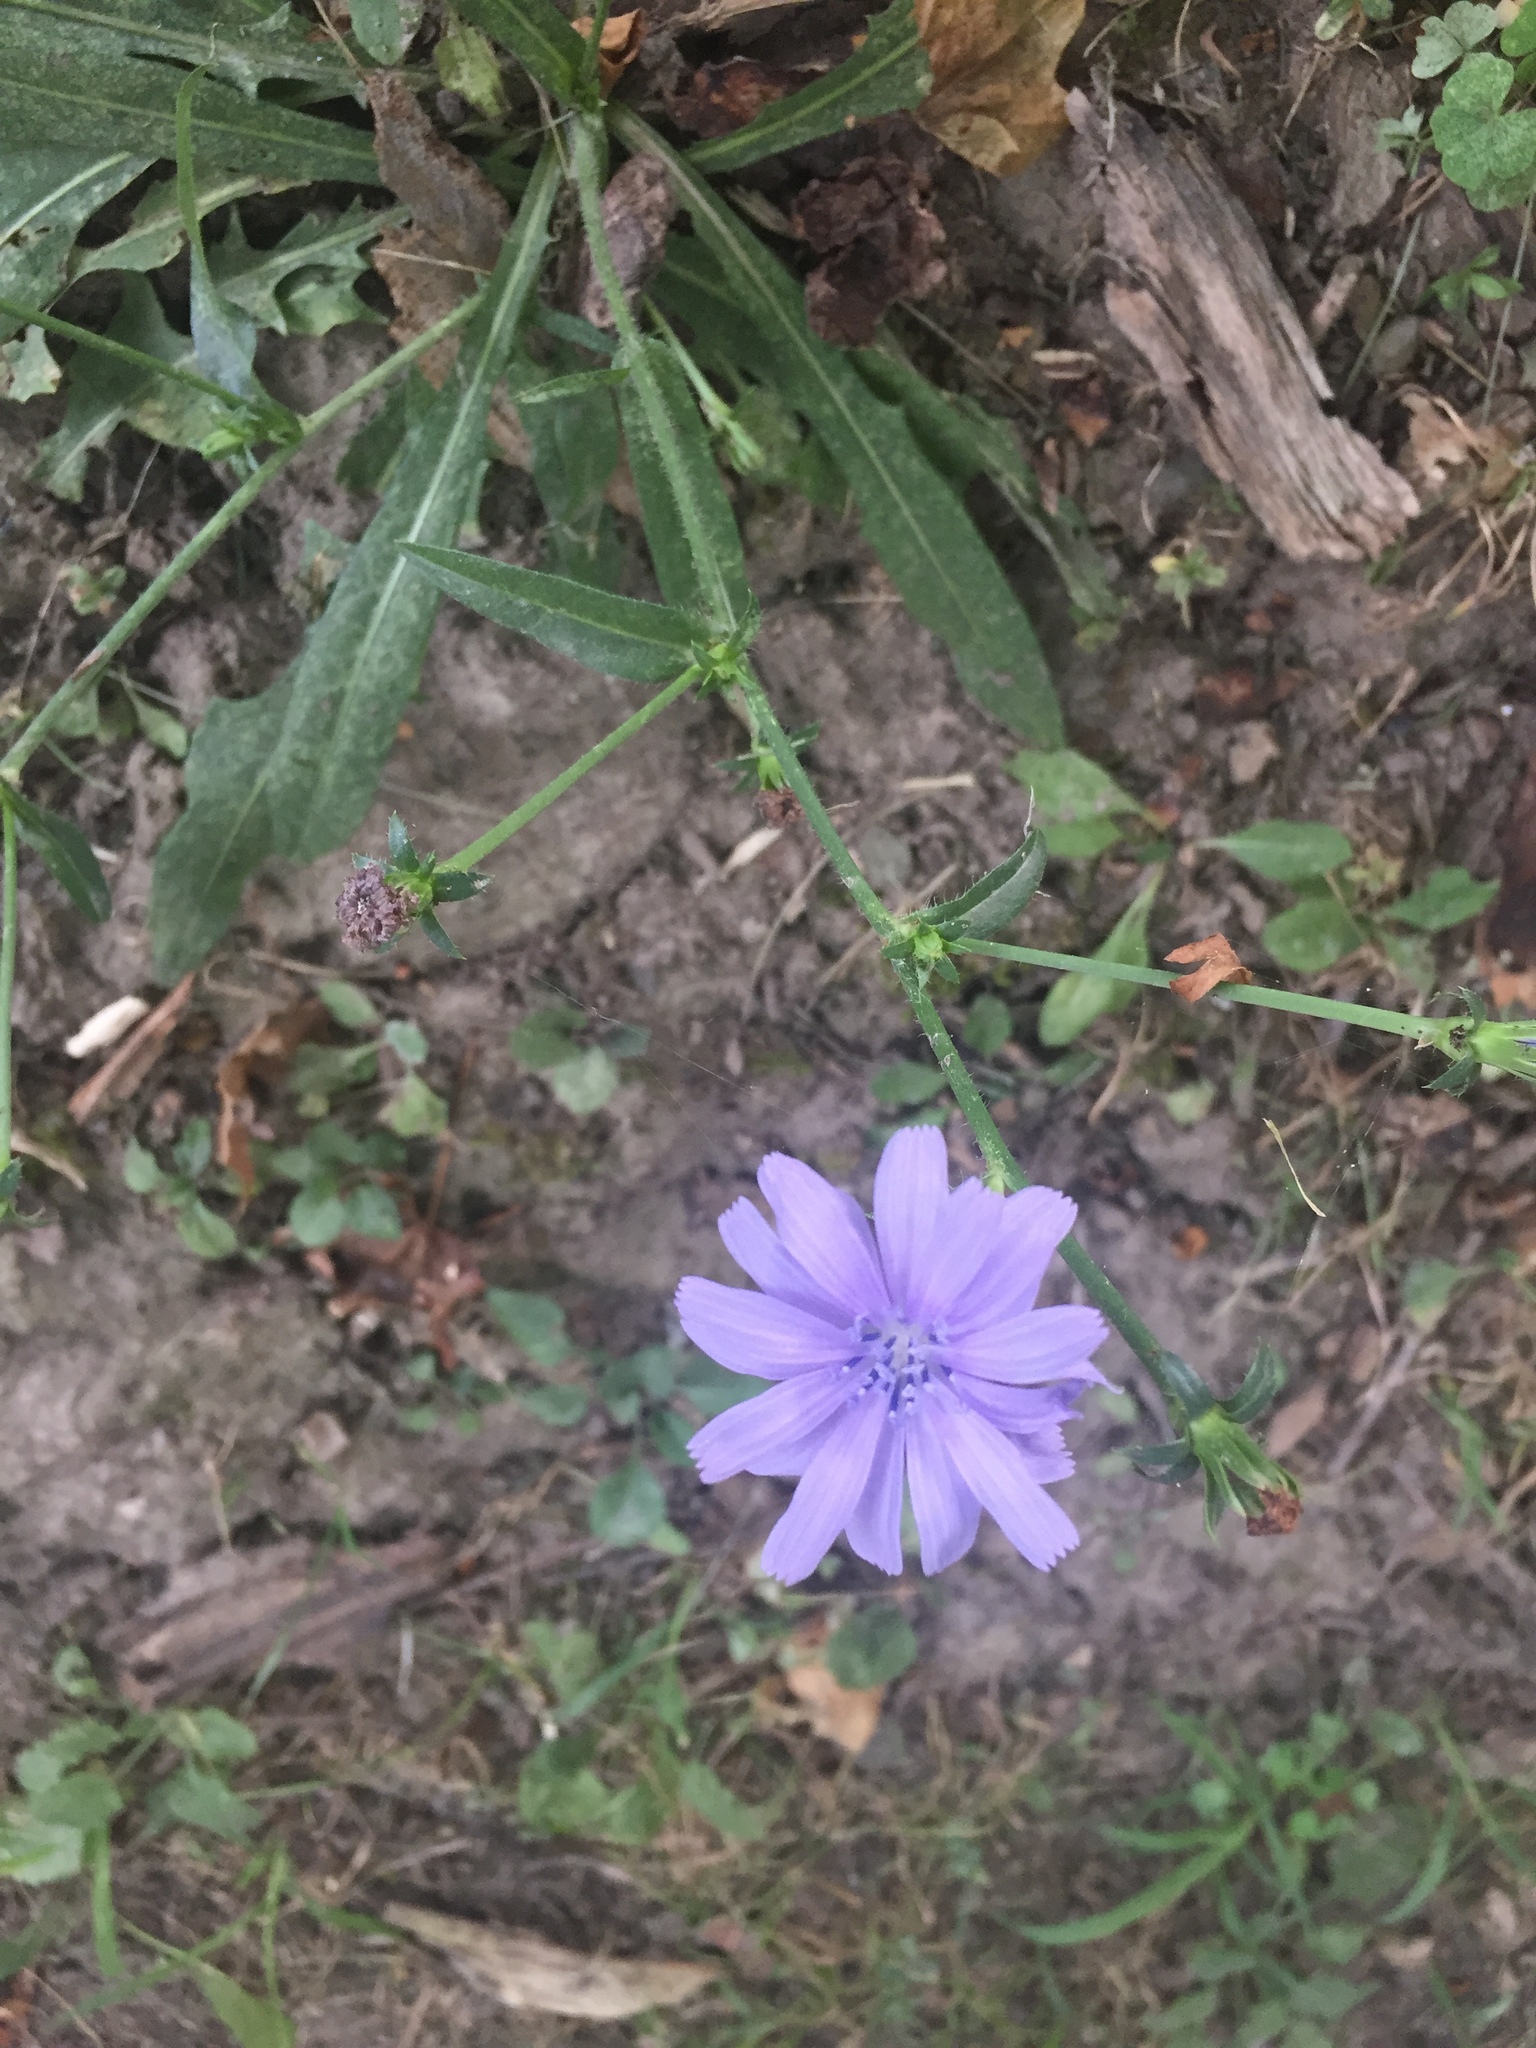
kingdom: Plantae
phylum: Tracheophyta
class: Magnoliopsida
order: Asterales
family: Asteraceae
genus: Cichorium
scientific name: Cichorium intybus
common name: Chicory
